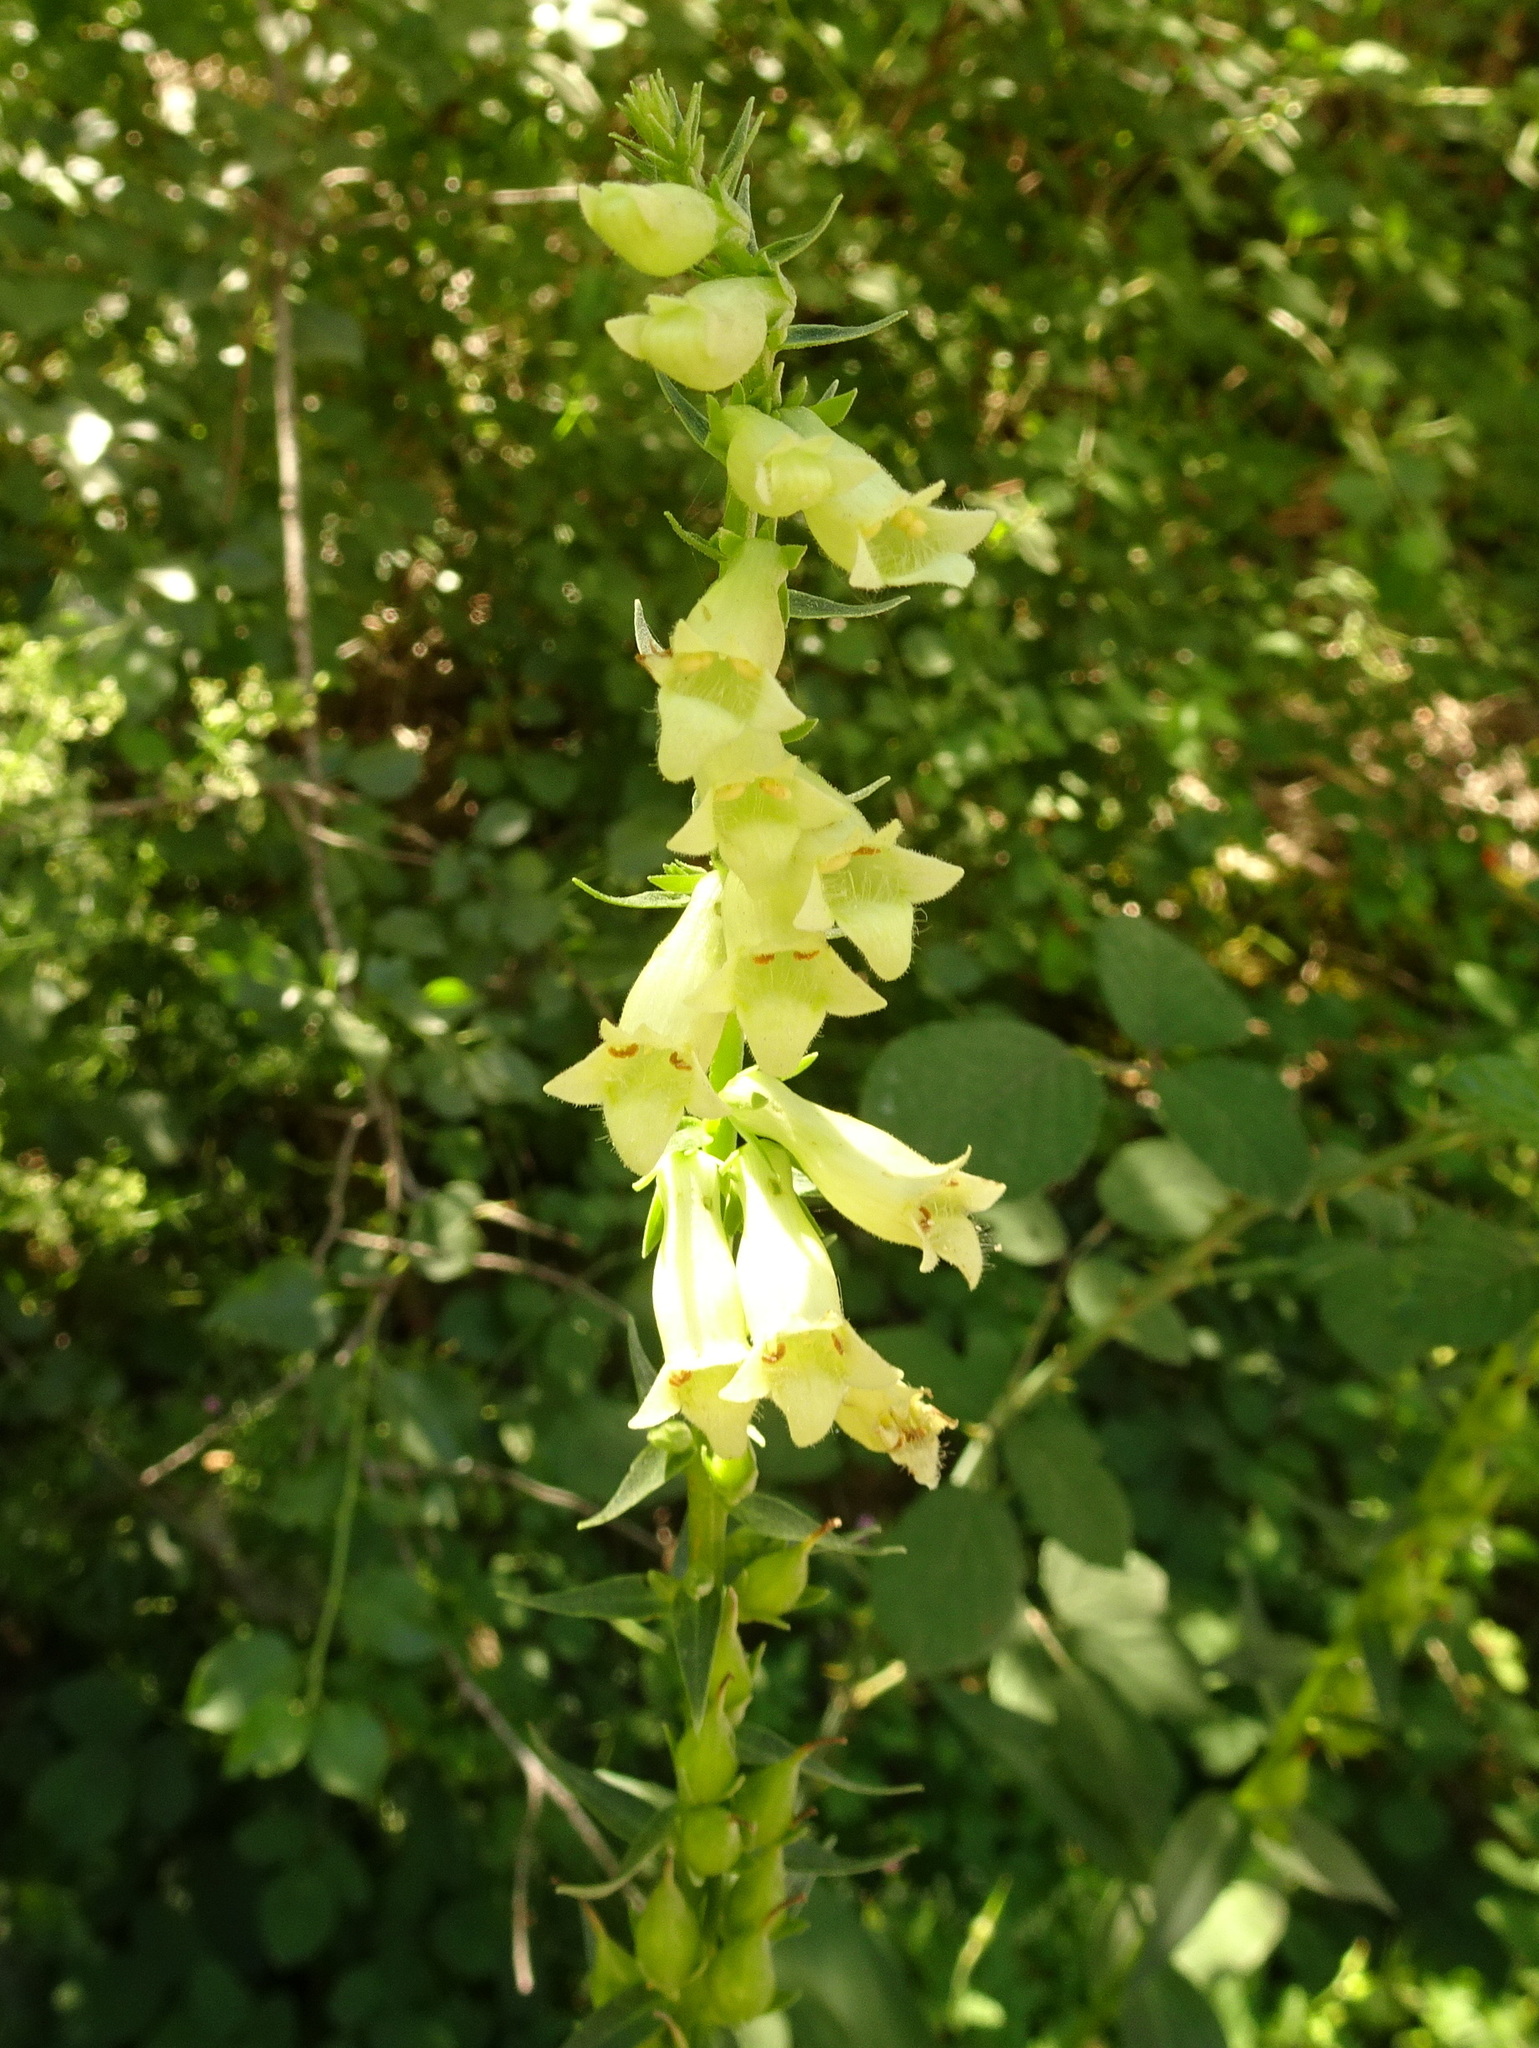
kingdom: Plantae
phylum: Tracheophyta
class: Magnoliopsida
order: Lamiales
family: Plantaginaceae
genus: Digitalis
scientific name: Digitalis lutea
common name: Straw foxglove
